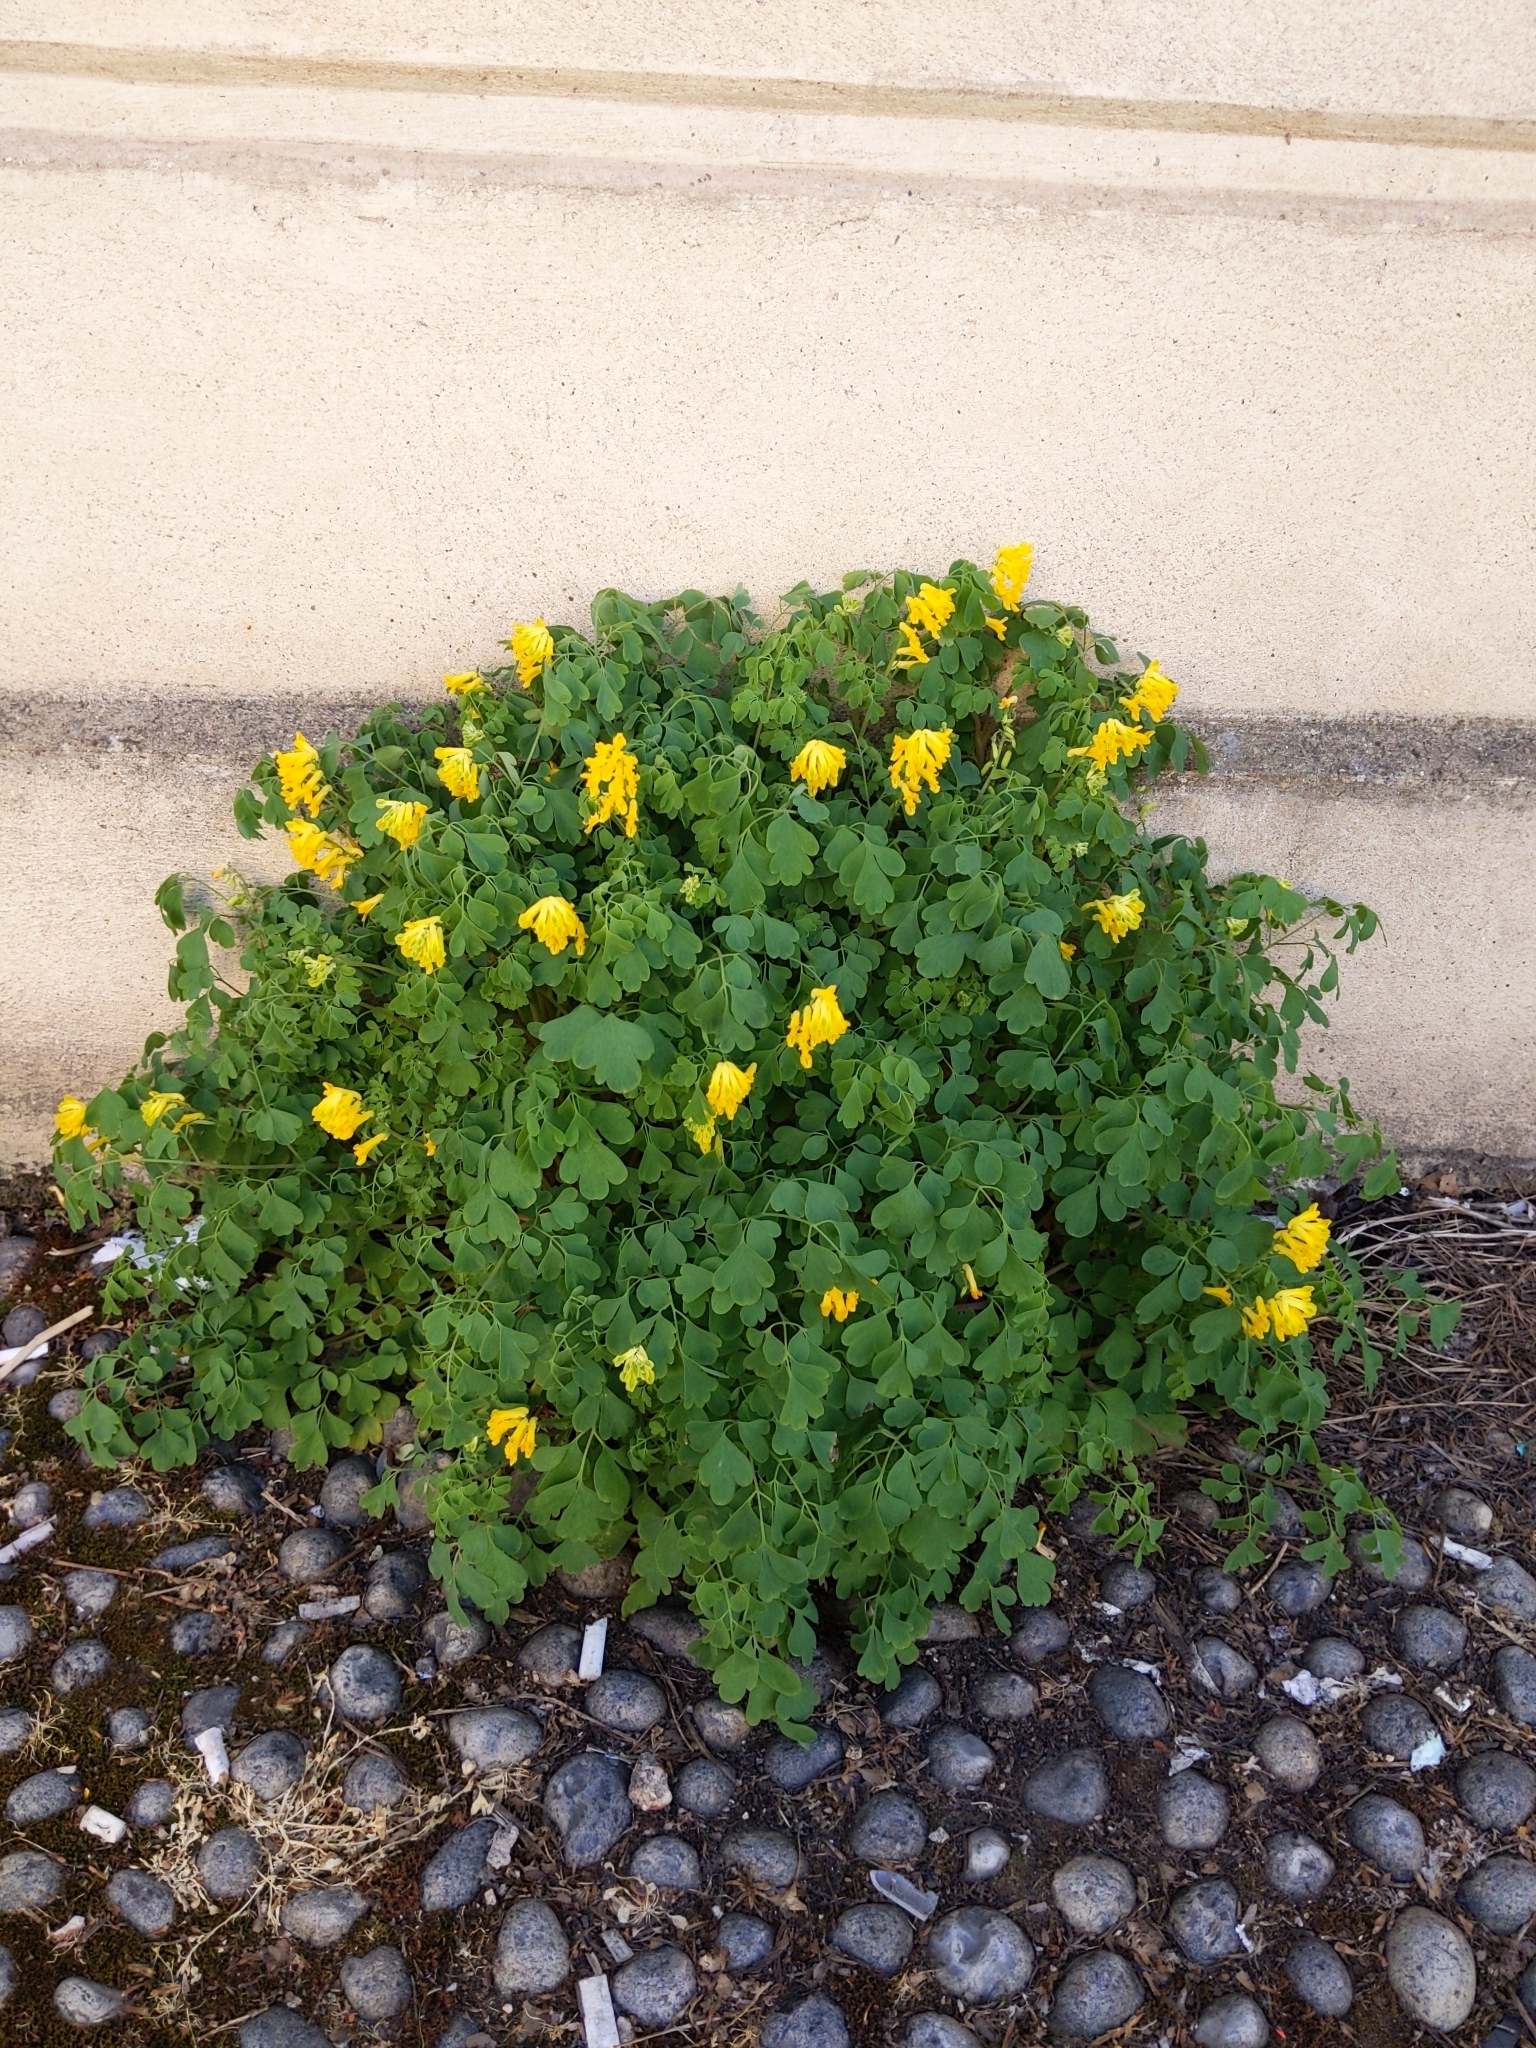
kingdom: Plantae
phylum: Tracheophyta
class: Magnoliopsida
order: Ranunculales
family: Papaveraceae
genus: Pseudofumaria
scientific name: Pseudofumaria lutea
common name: Yellow corydalis
